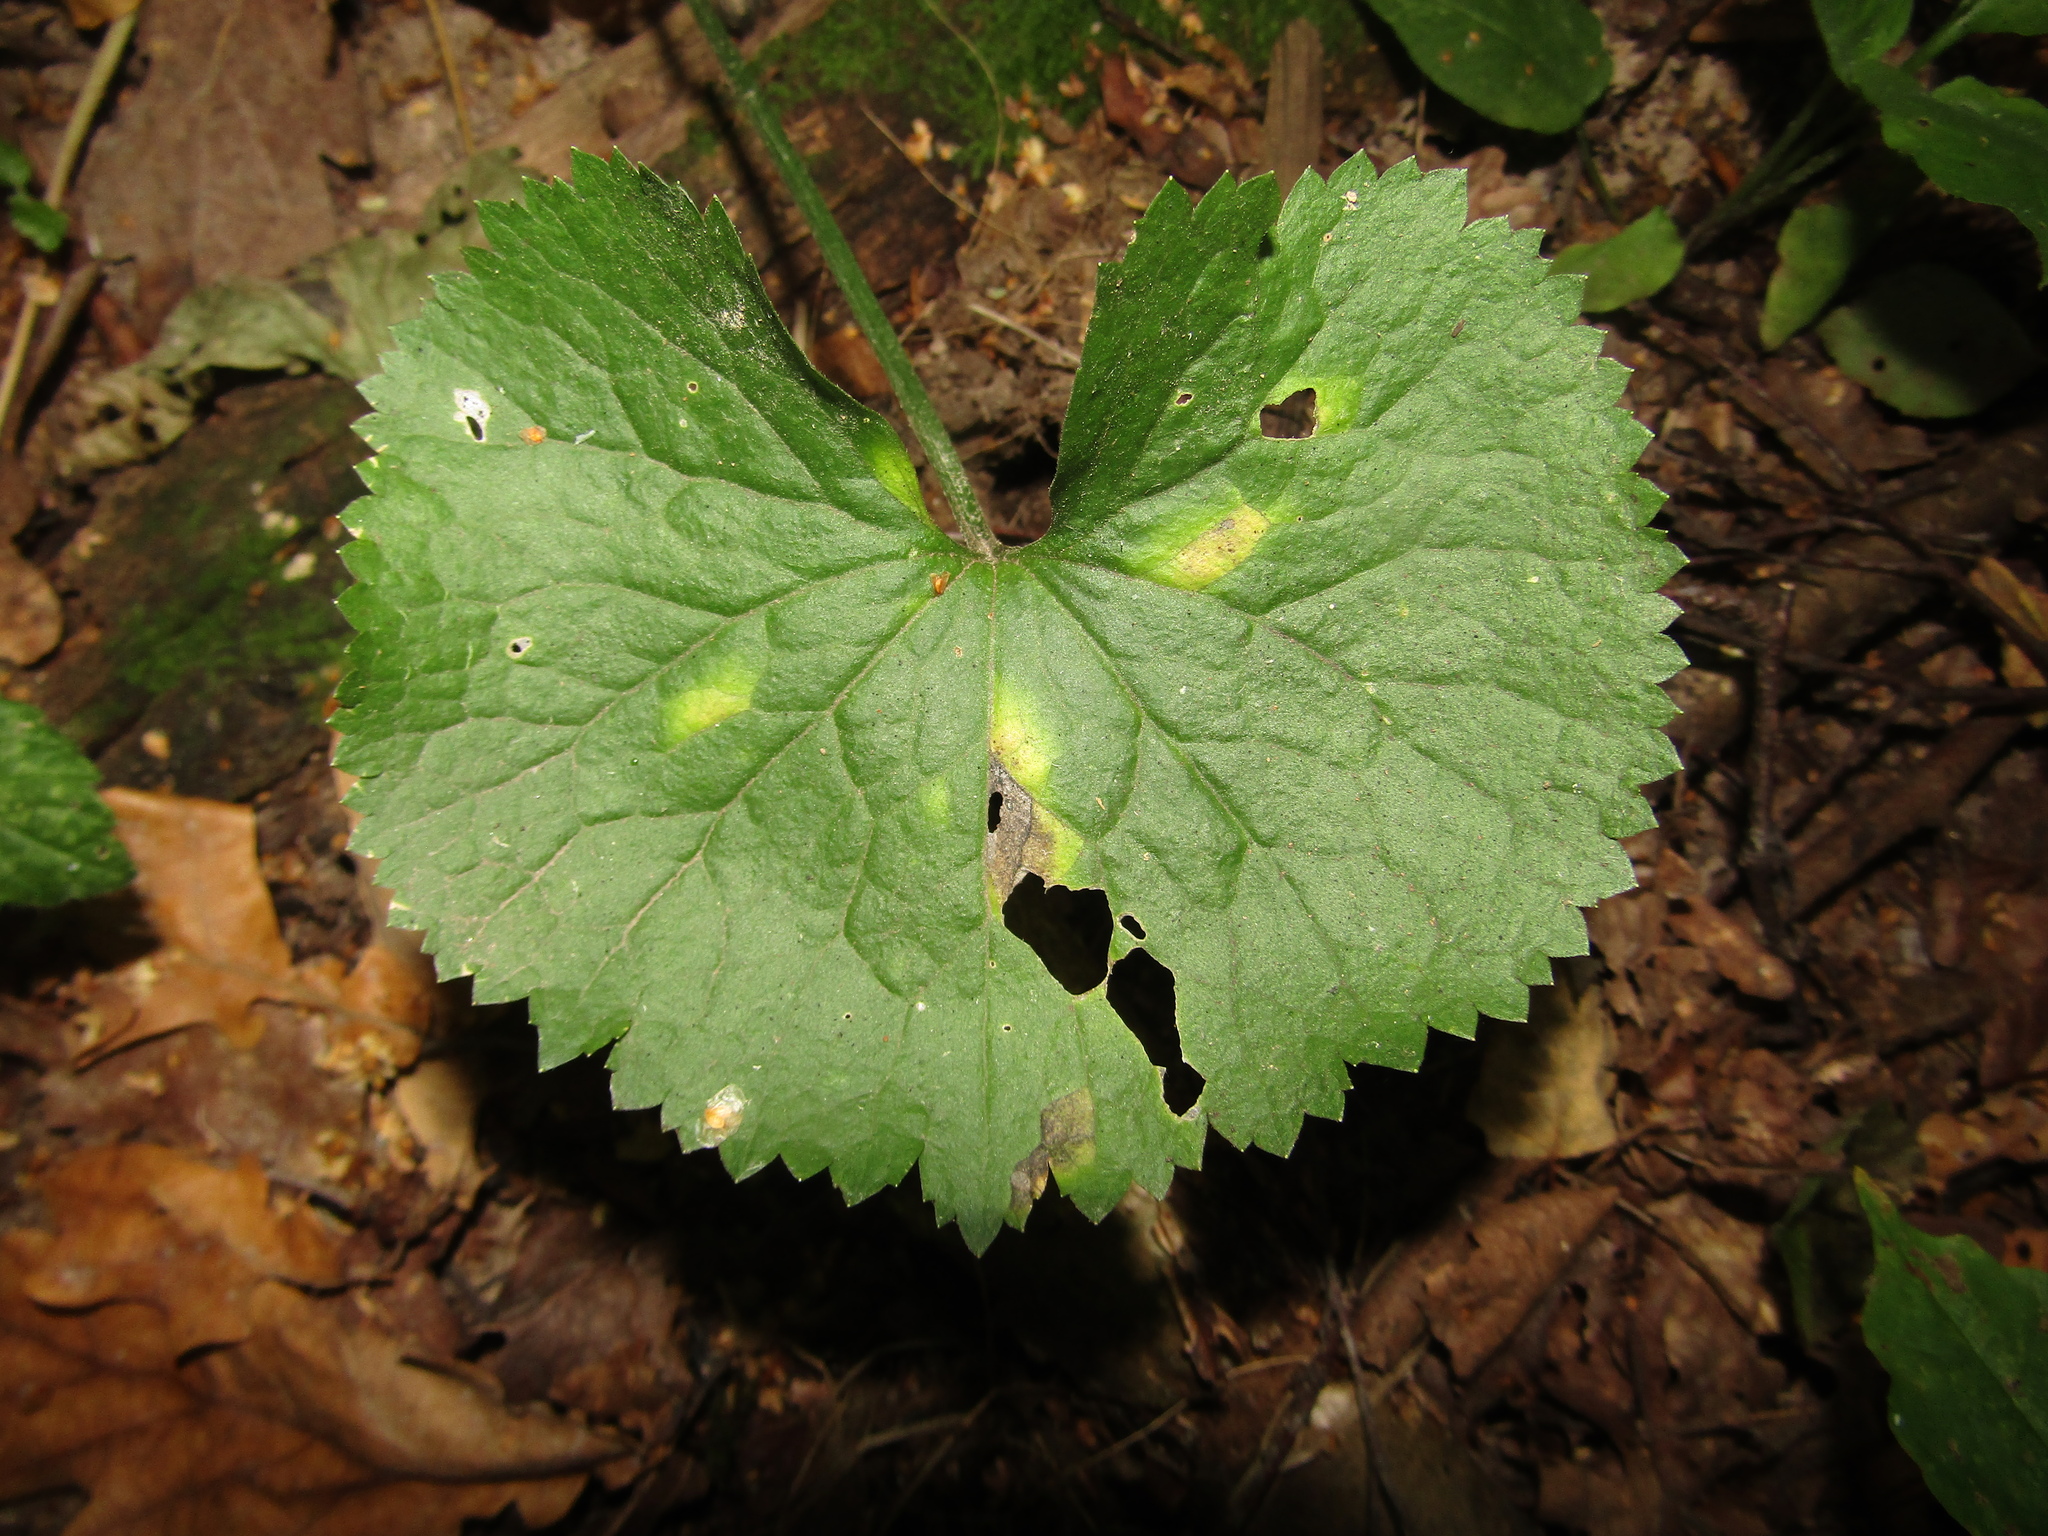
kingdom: Plantae
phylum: Tracheophyta
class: Magnoliopsida
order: Ranunculales
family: Ranunculaceae
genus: Ranunculus
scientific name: Ranunculus cassubicus
